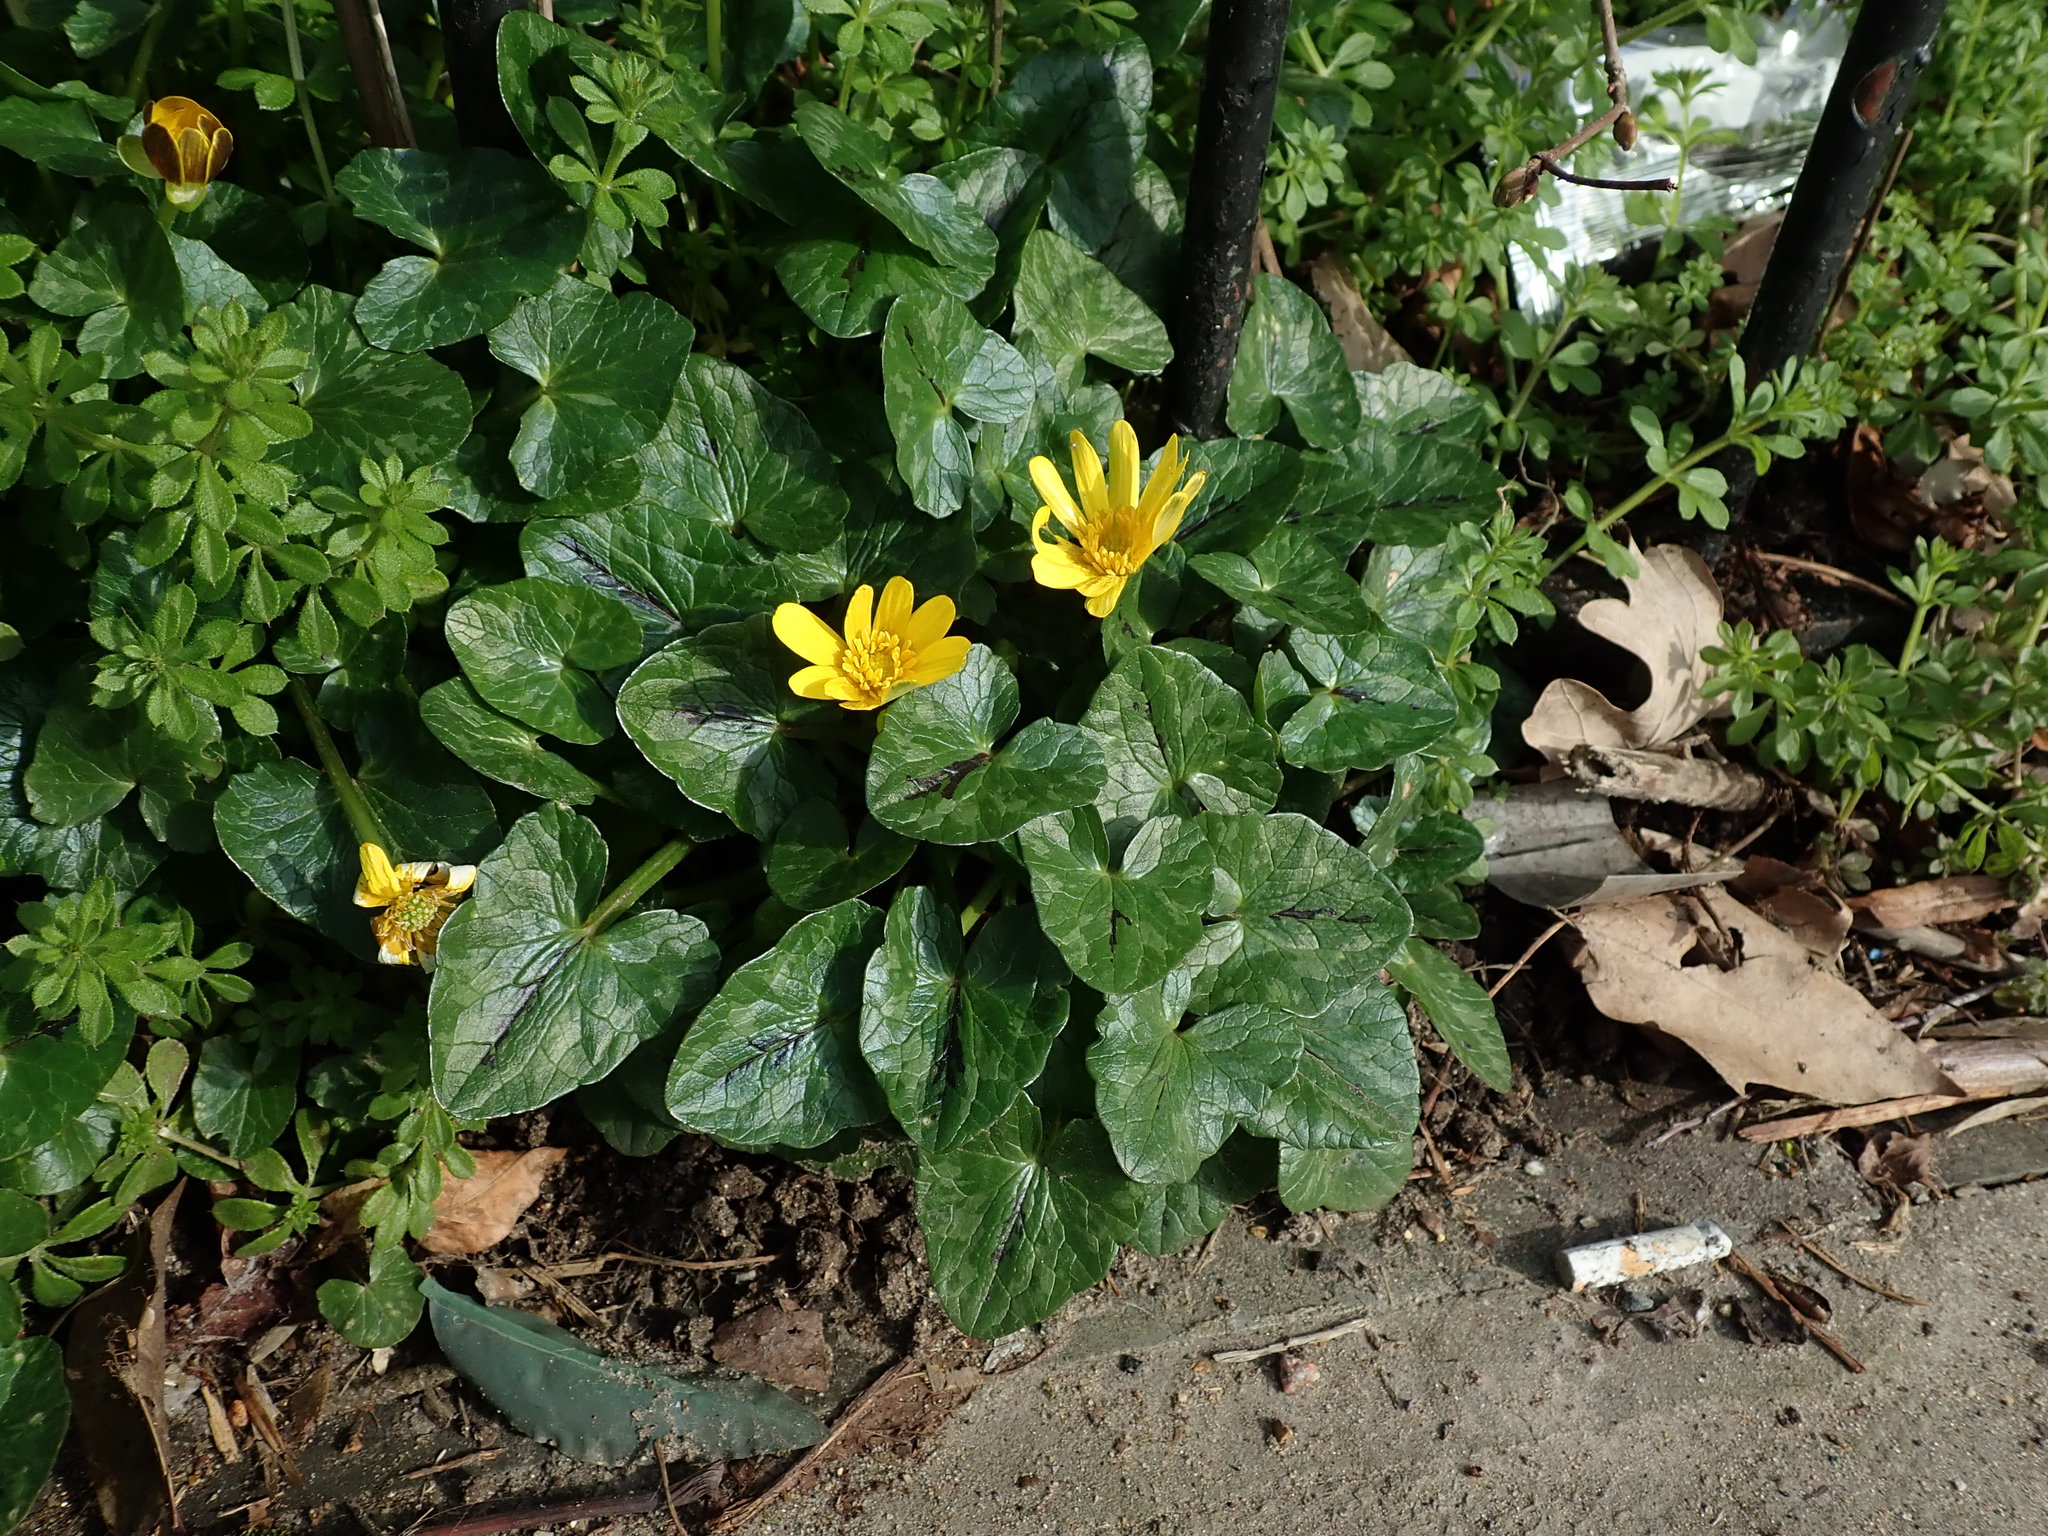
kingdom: Plantae
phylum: Tracheophyta
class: Magnoliopsida
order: Ranunculales
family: Ranunculaceae
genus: Ficaria
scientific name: Ficaria verna
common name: Lesser celandine
